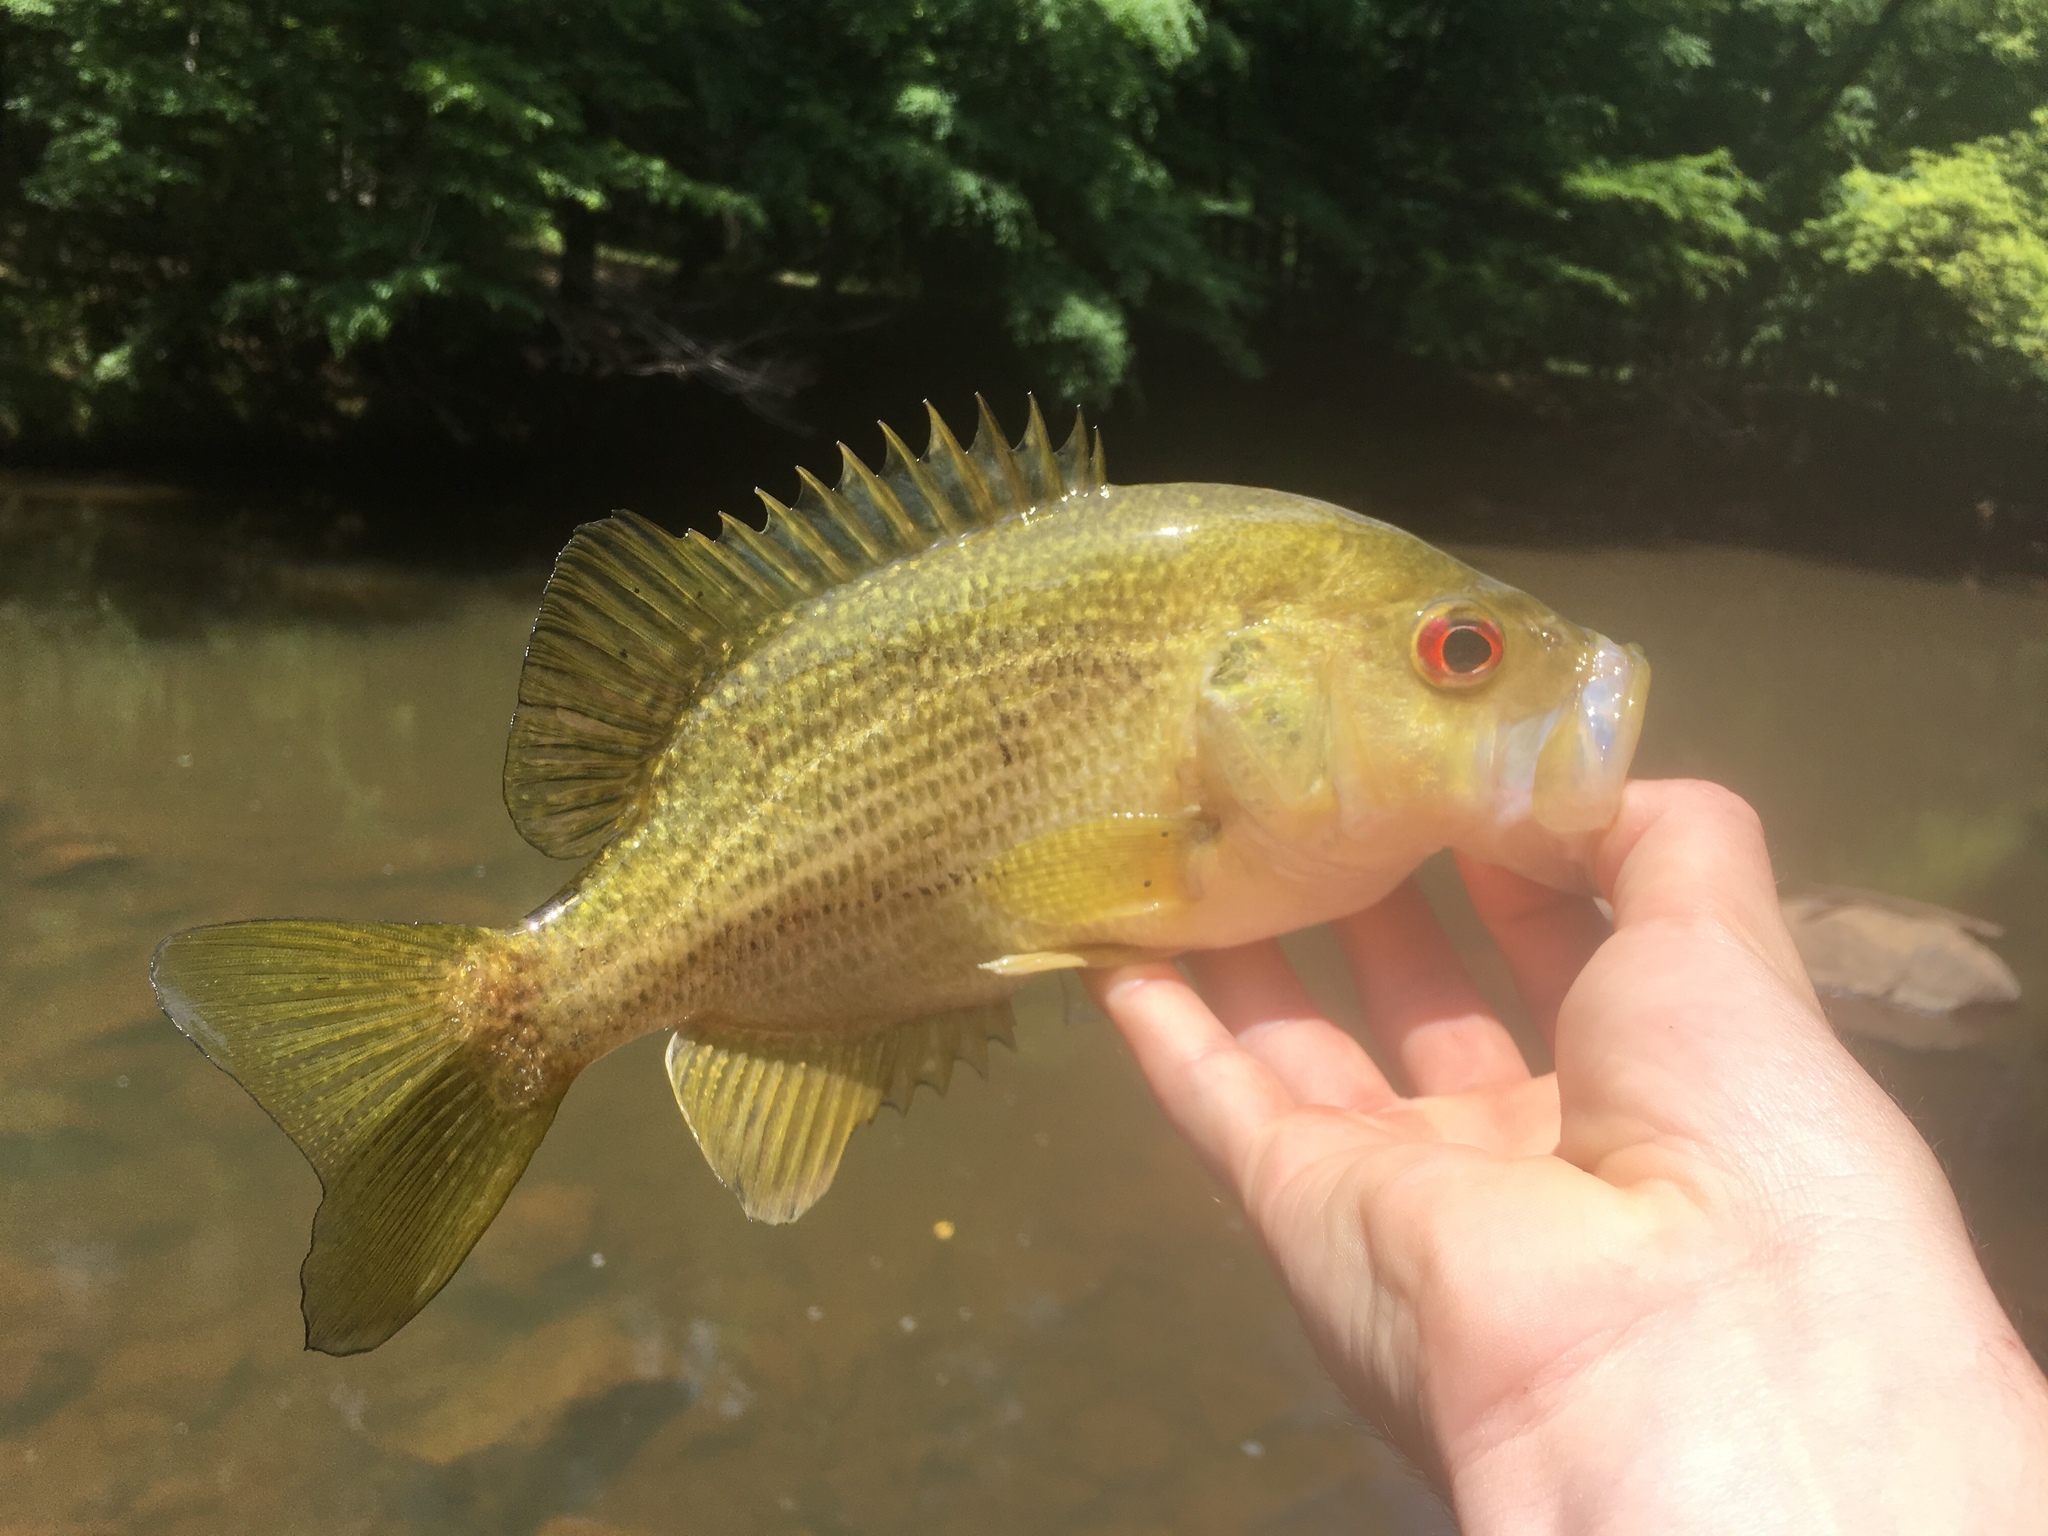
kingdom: Animalia
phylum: Chordata
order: Perciformes
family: Centrarchidae
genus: Ambloplites
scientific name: Ambloplites cavifrons
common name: Roanoke bass
